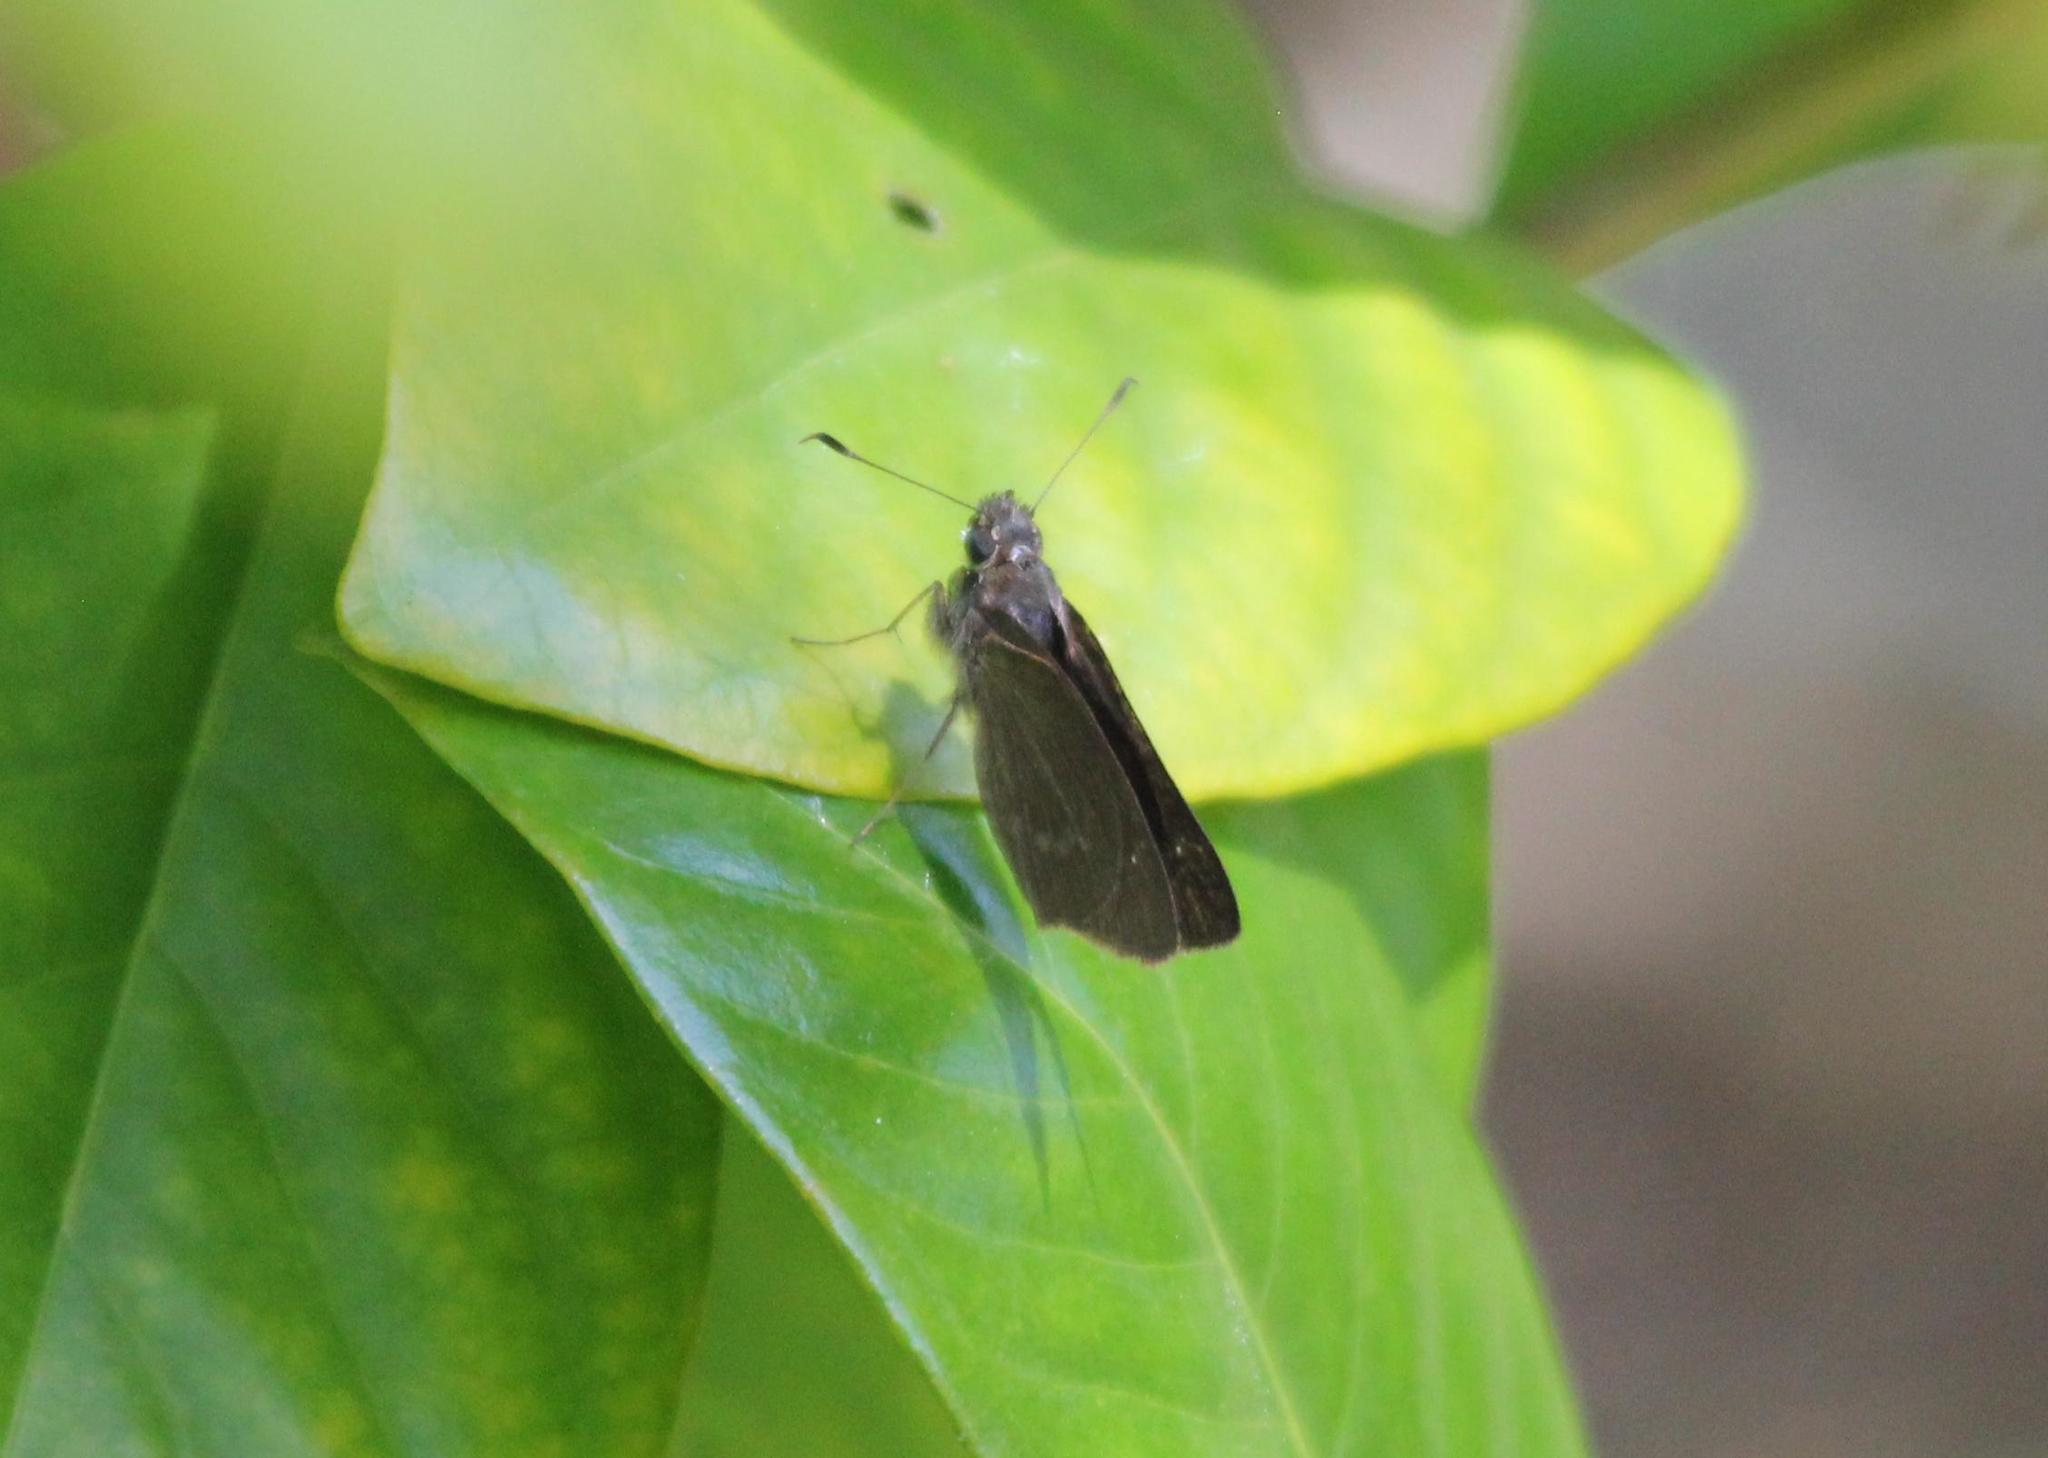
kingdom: Animalia
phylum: Arthropoda
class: Insecta
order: Lepidoptera
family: Hesperiidae
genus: Cymaenes
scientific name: Cymaenes tripunctus
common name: Dingy dotted skipper
